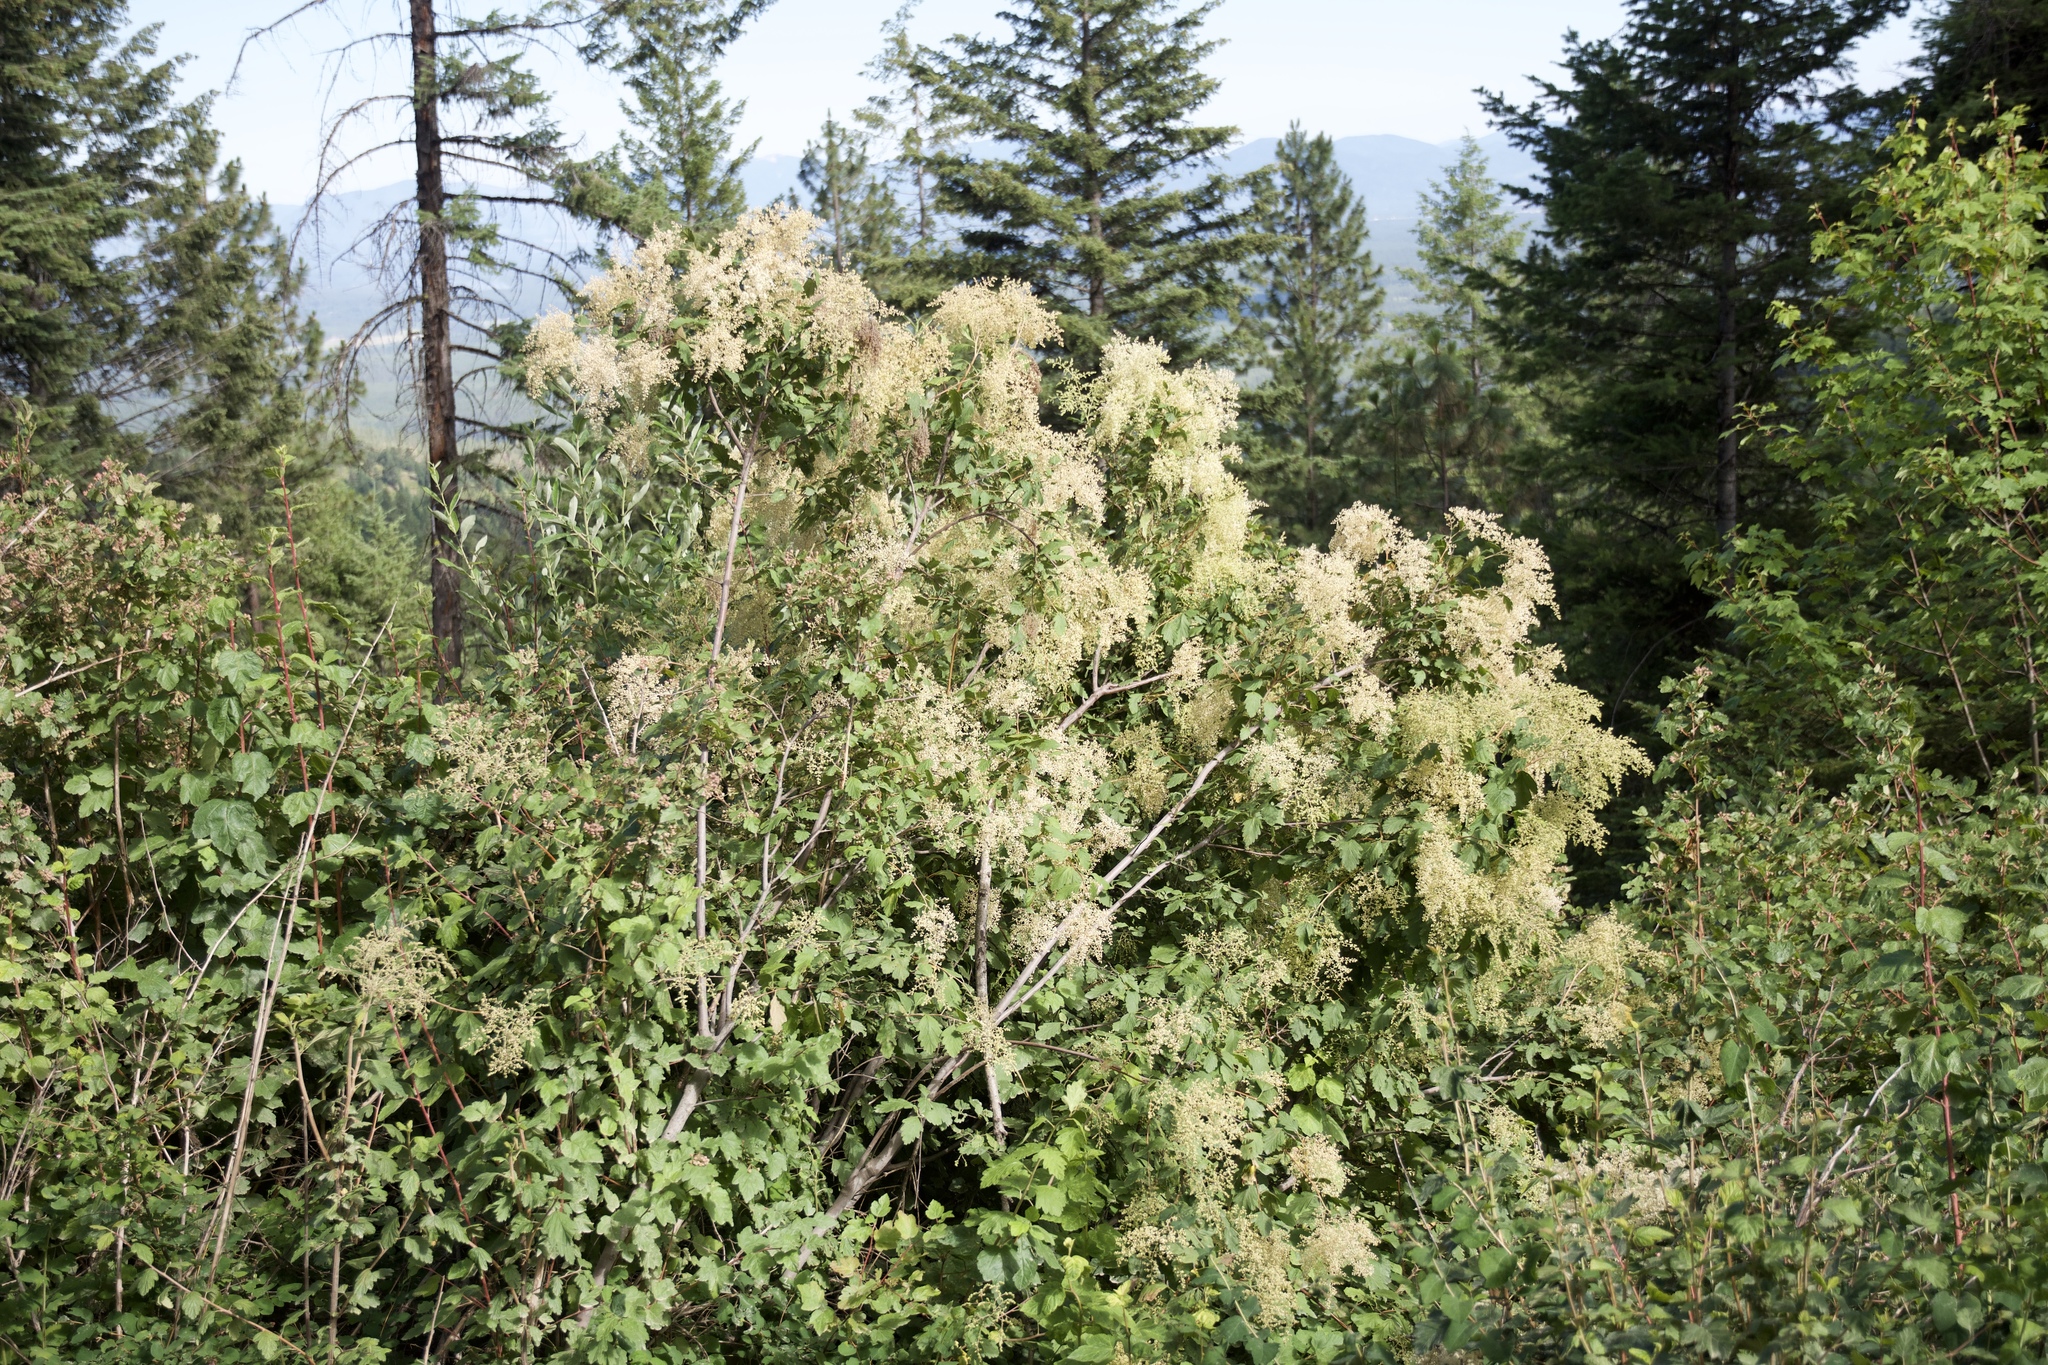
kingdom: Plantae
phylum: Tracheophyta
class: Magnoliopsida
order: Rosales
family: Rosaceae
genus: Holodiscus
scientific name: Holodiscus discolor
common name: Oceanspray
